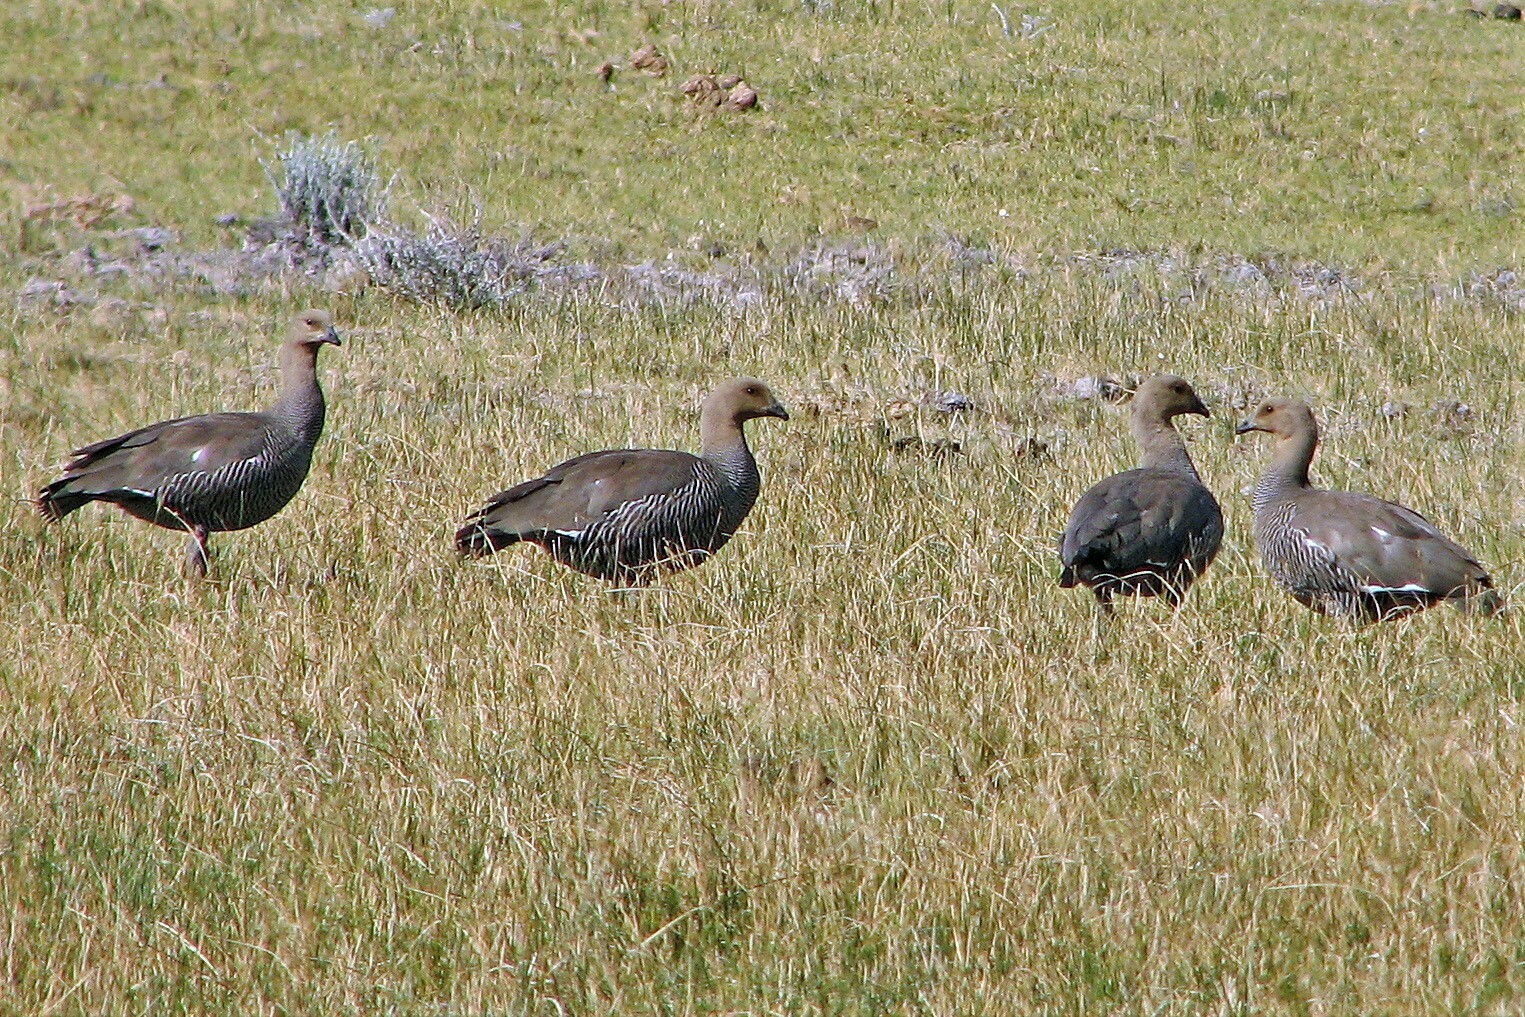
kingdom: Animalia
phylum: Chordata
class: Aves
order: Anseriformes
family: Anatidae
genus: Chloephaga
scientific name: Chloephaga picta
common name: Upland goose
